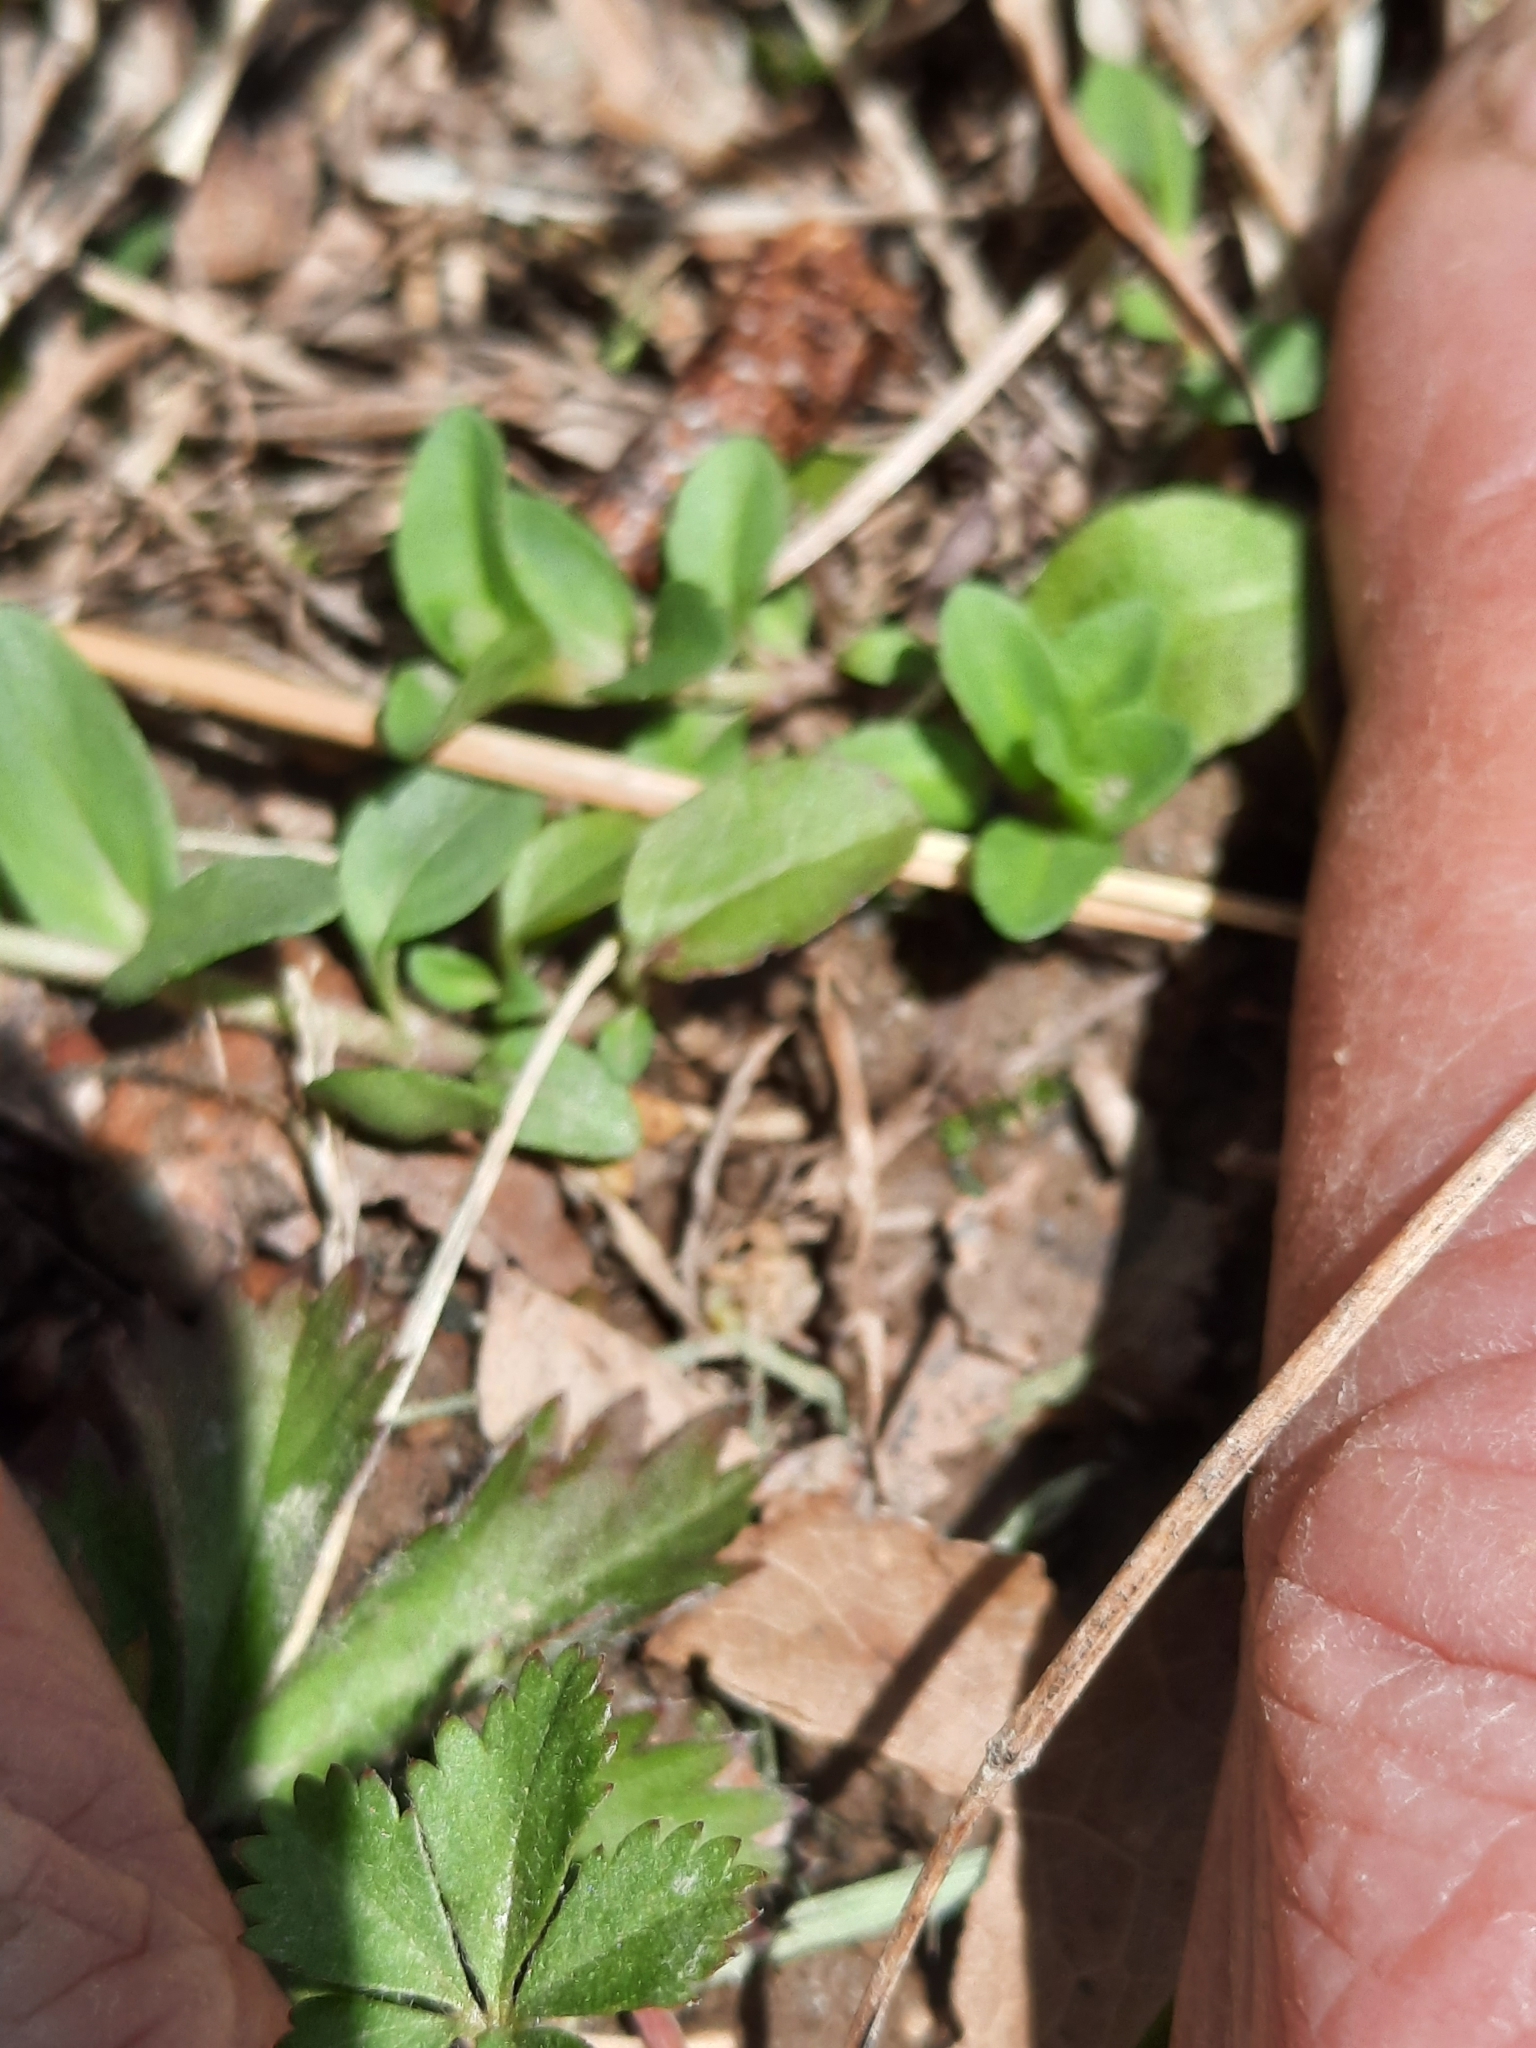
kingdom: Plantae
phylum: Tracheophyta
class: Magnoliopsida
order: Lamiales
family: Plantaginaceae
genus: Veronica
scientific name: Veronica serpyllifolia
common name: Thyme-leaved speedwell
